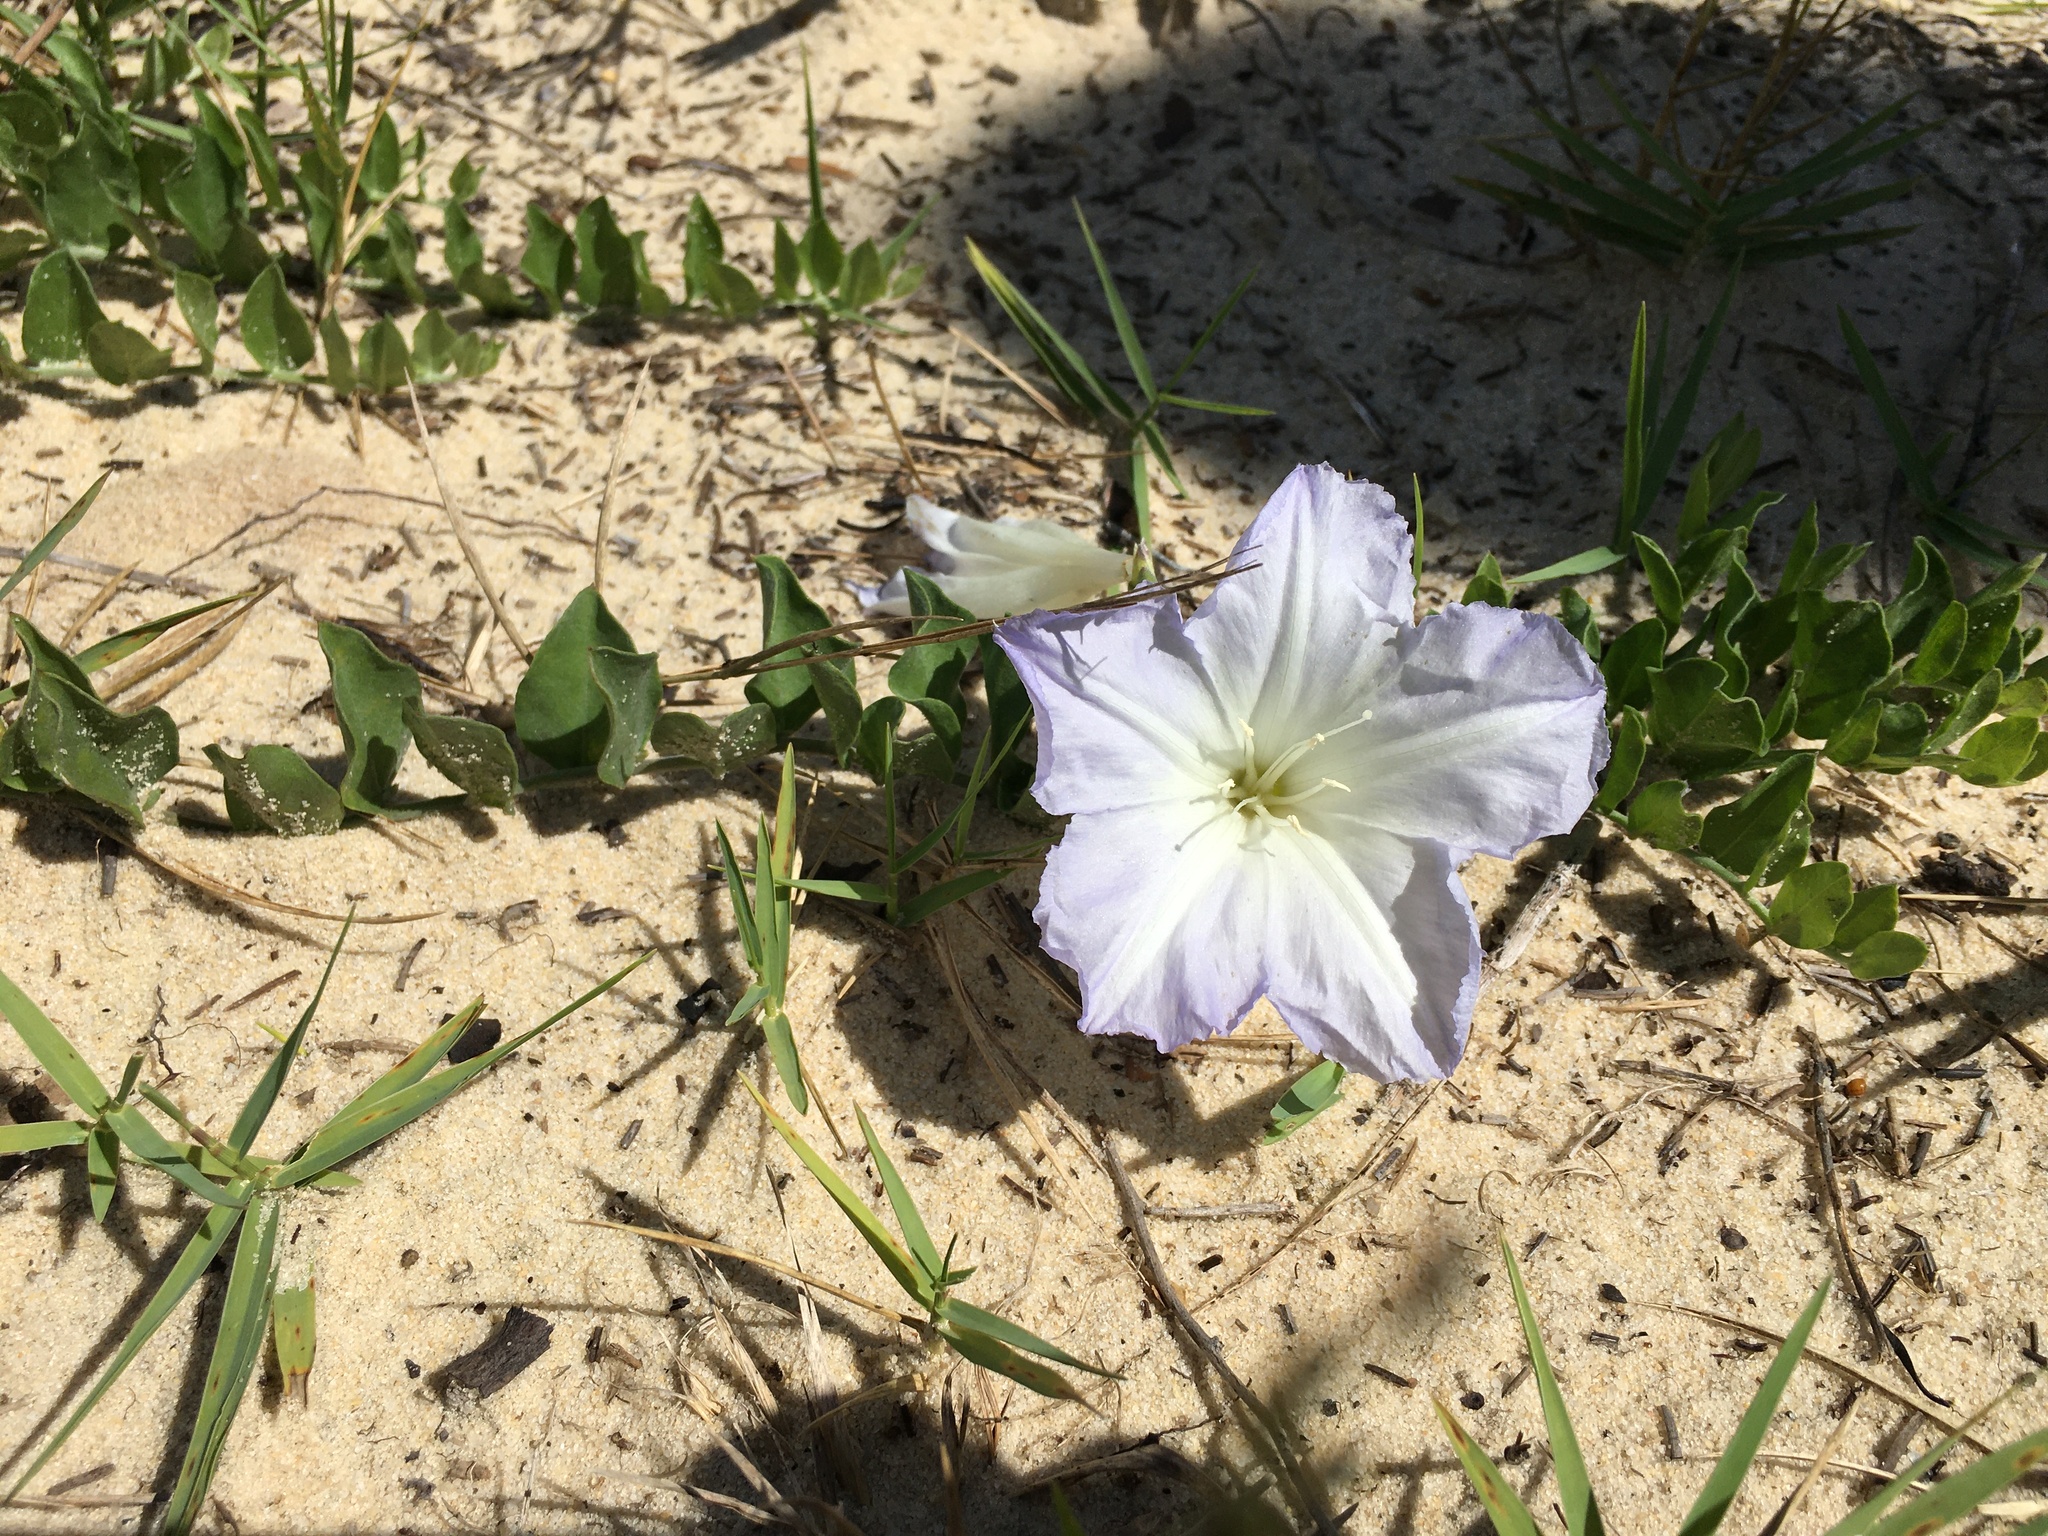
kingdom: Plantae
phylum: Tracheophyta
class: Magnoliopsida
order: Solanales
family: Convolvulaceae
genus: Bonamia
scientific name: Bonamia grandiflora
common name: Florida bonamia
